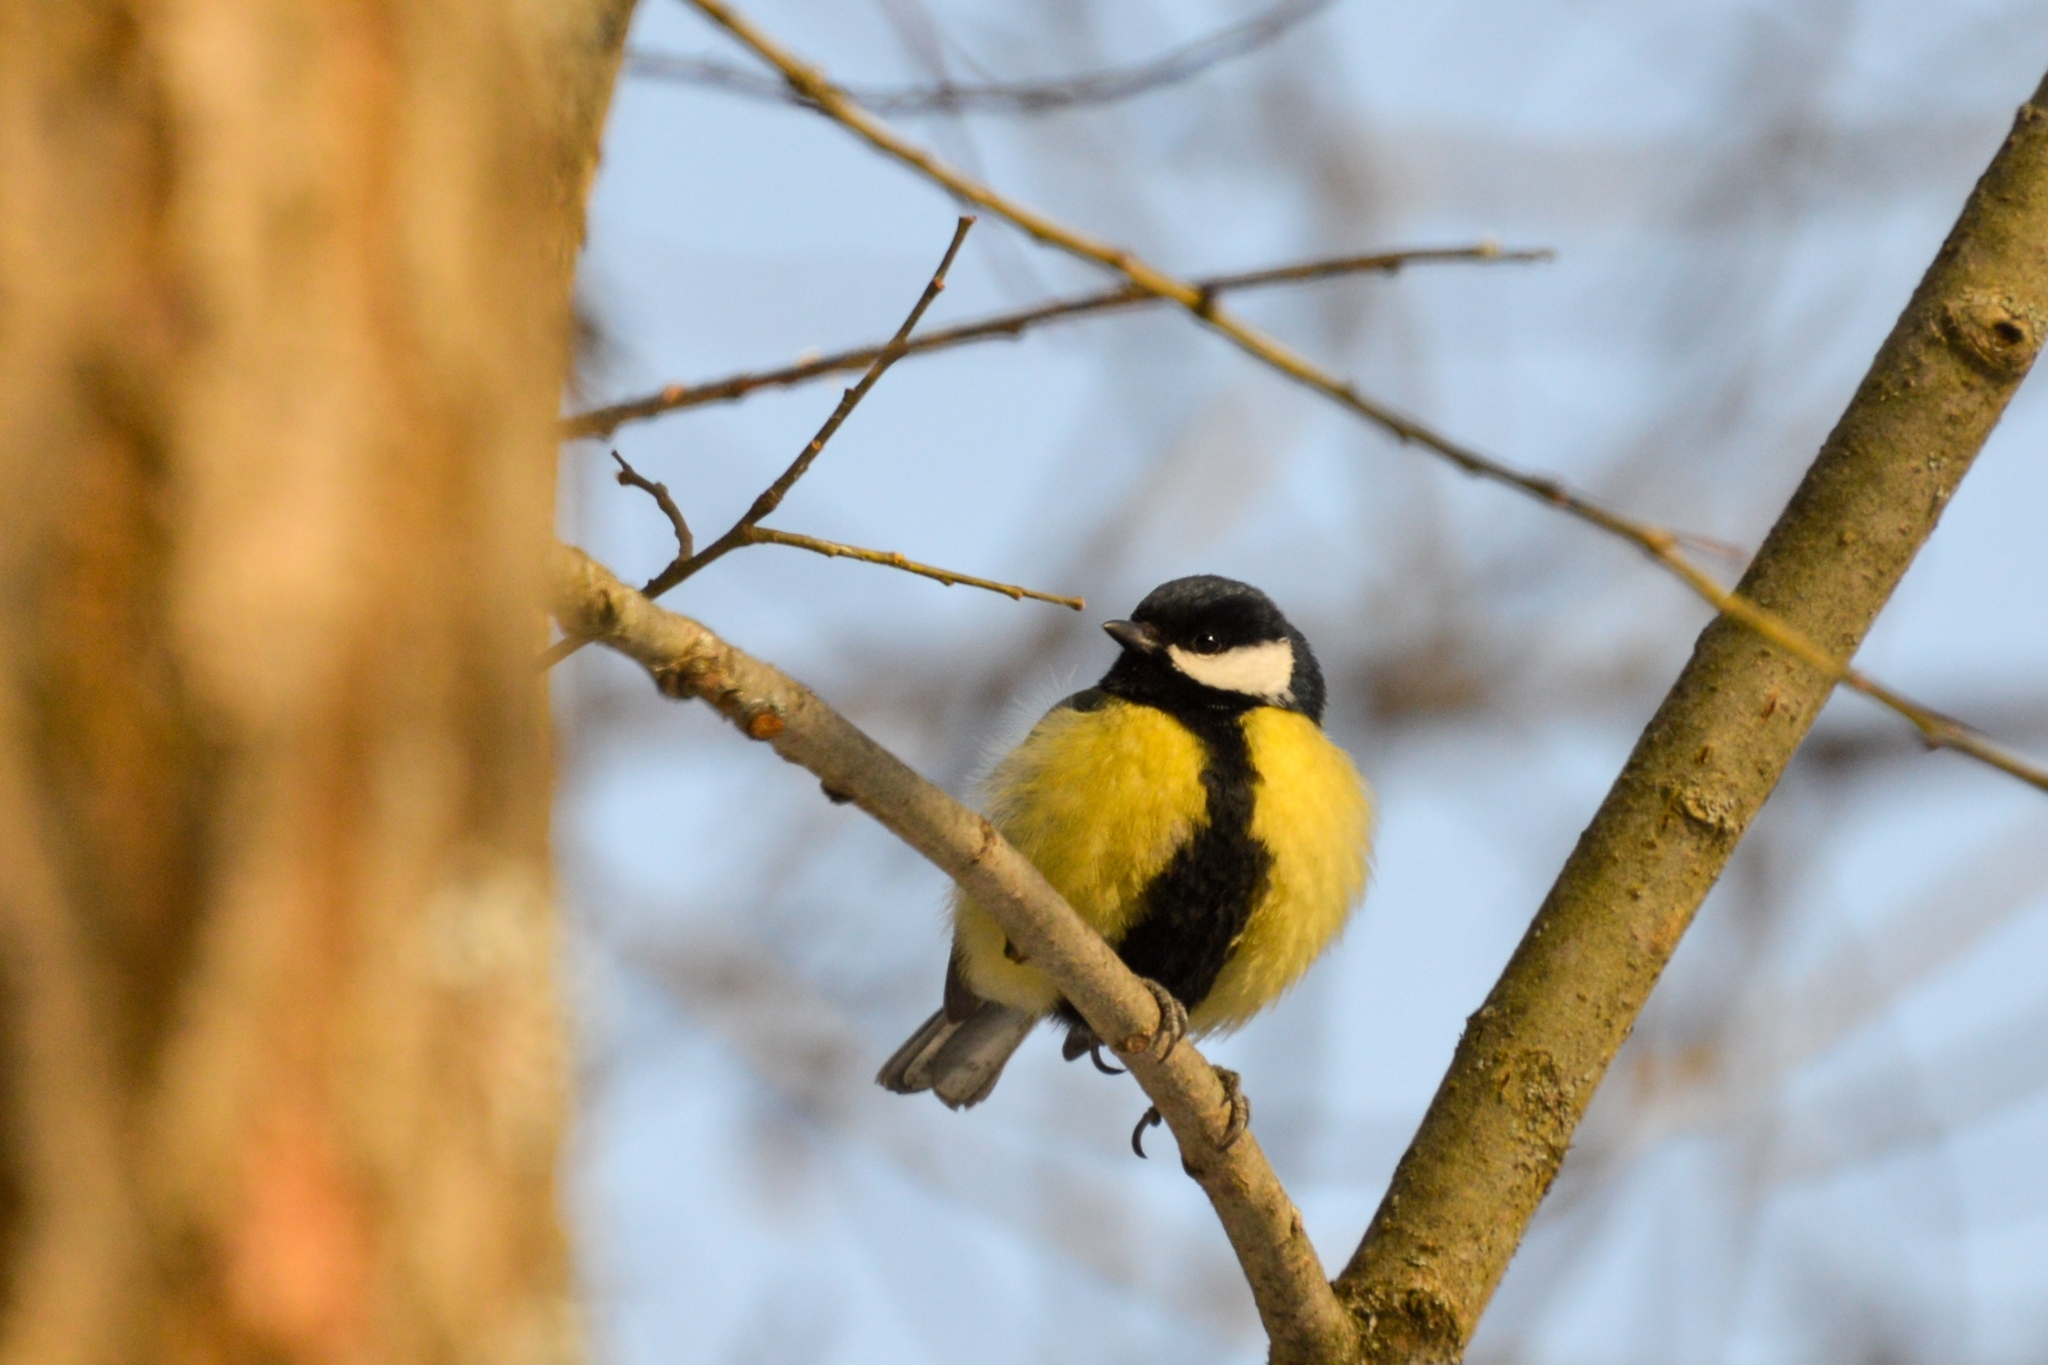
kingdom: Animalia
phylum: Chordata
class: Aves
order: Passeriformes
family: Paridae
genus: Parus
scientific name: Parus major
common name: Great tit
